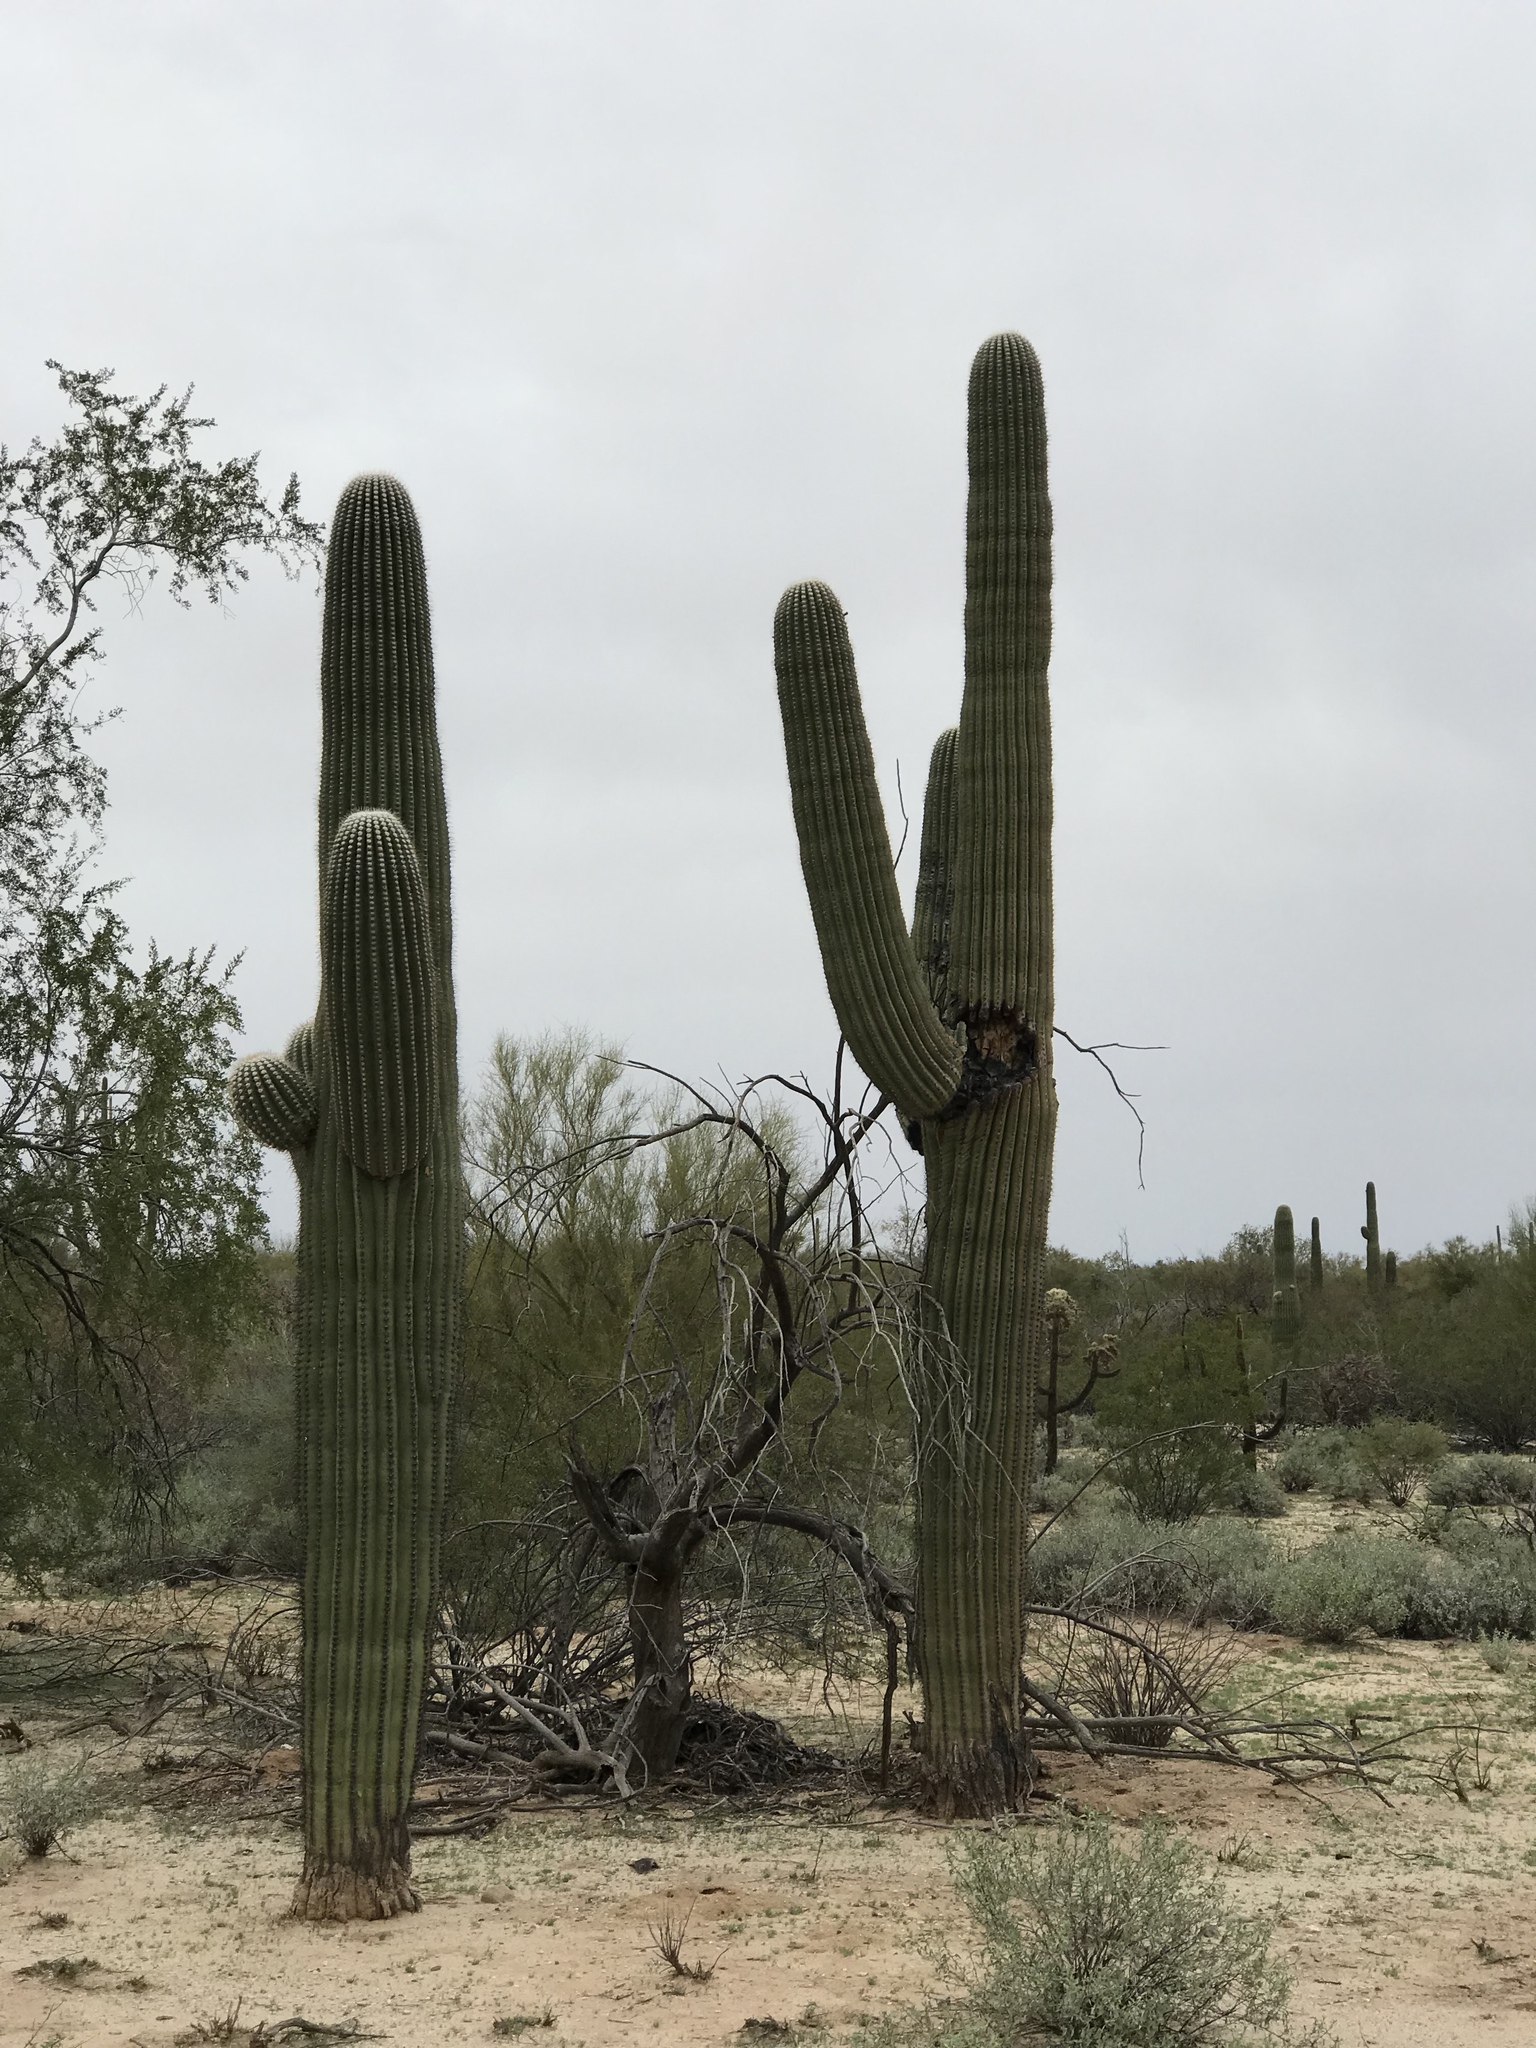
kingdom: Plantae
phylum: Tracheophyta
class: Magnoliopsida
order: Caryophyllales
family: Cactaceae
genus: Carnegiea
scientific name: Carnegiea gigantea
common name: Saguaro
